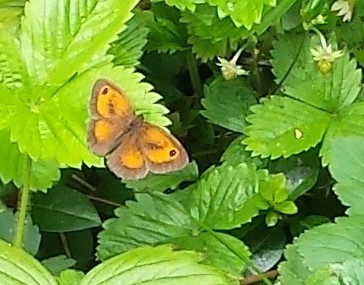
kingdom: Animalia
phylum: Arthropoda
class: Insecta
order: Lepidoptera
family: Nymphalidae
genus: Pyronia
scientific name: Pyronia tithonus
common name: Gatekeeper
